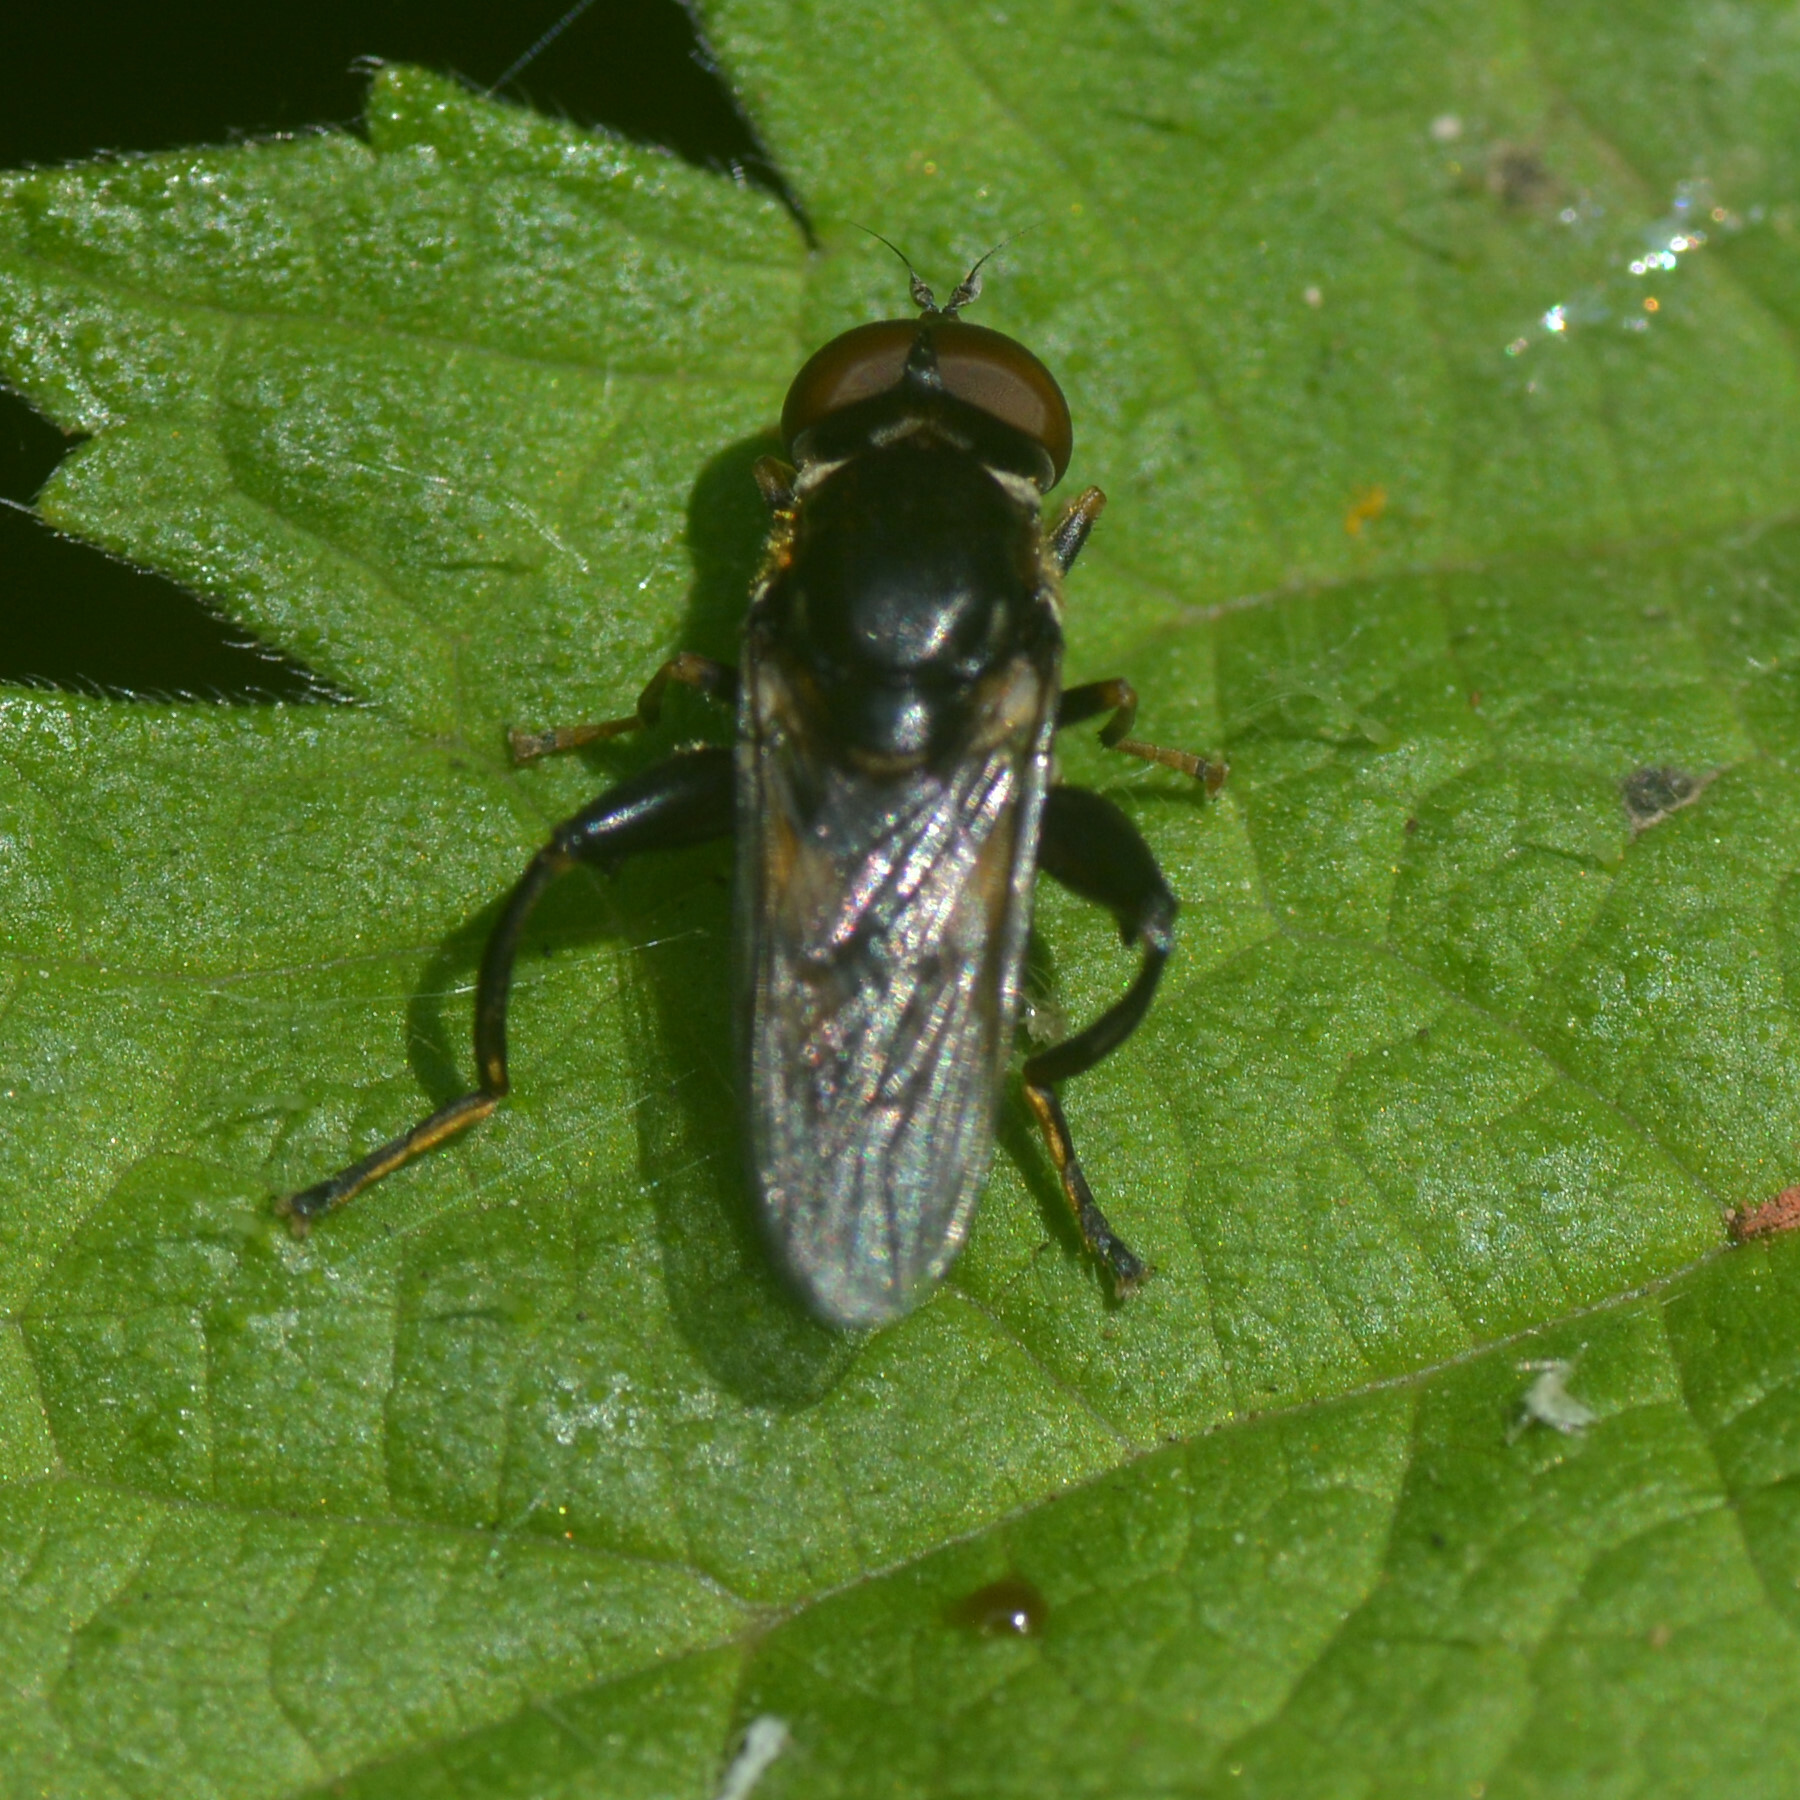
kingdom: Animalia
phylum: Arthropoda
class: Insecta
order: Diptera
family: Syrphidae
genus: Tropidia
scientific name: Tropidia scita
